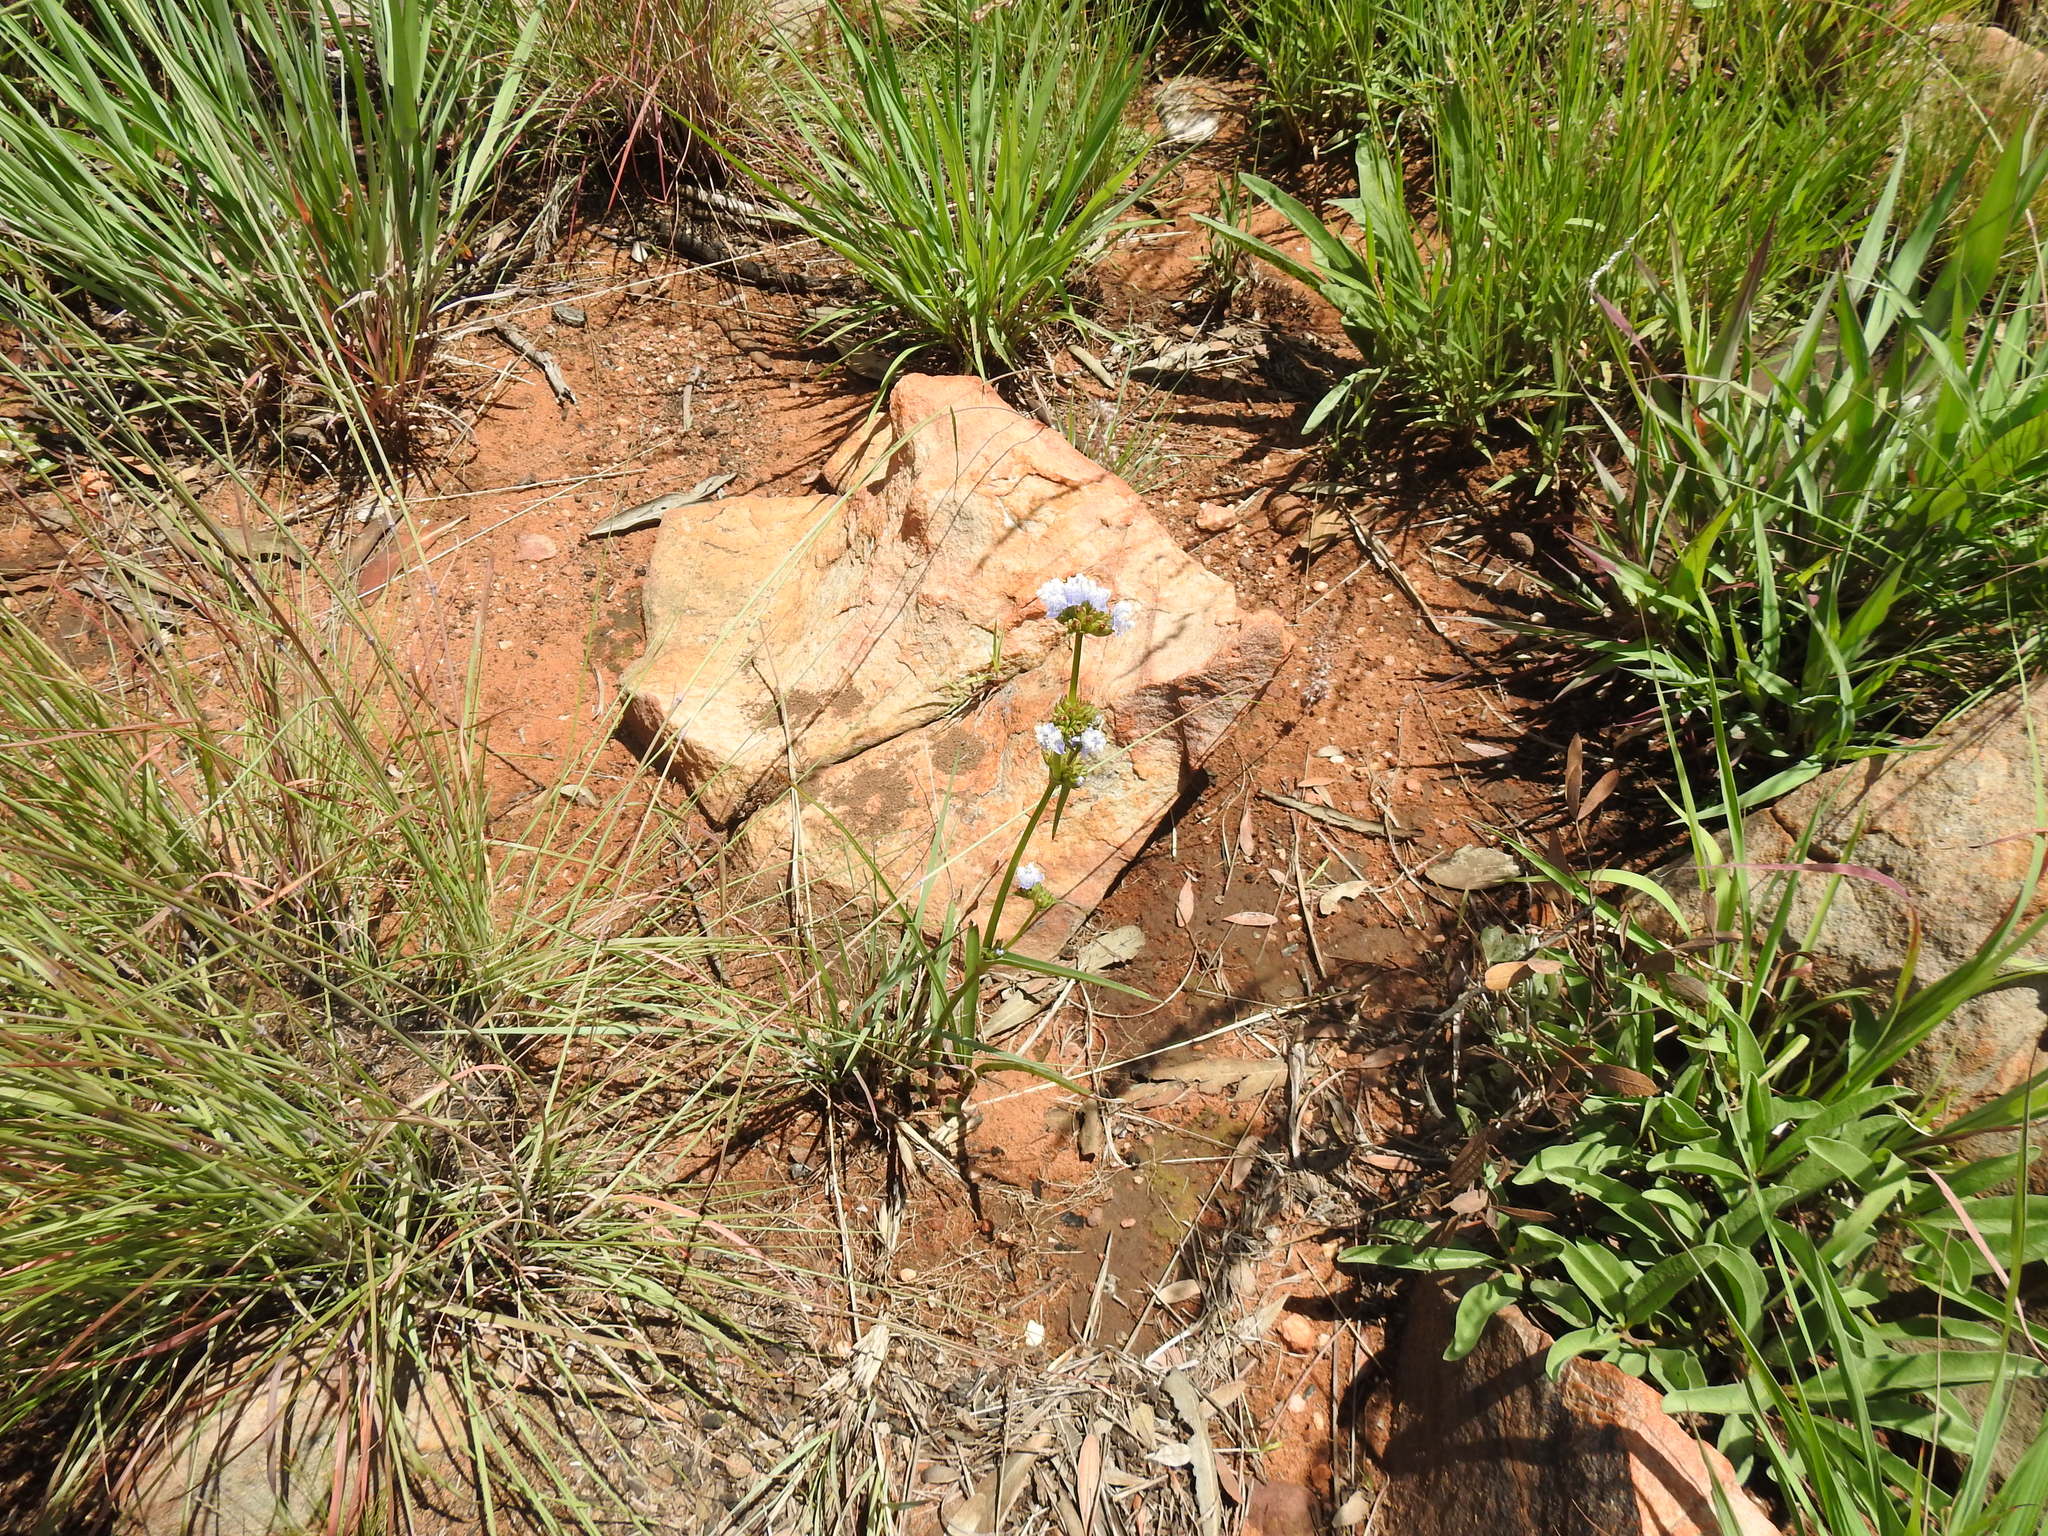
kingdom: Plantae
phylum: Tracheophyta
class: Liliopsida
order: Commelinales
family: Commelinaceae
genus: Cyanotis
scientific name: Cyanotis speciosa
